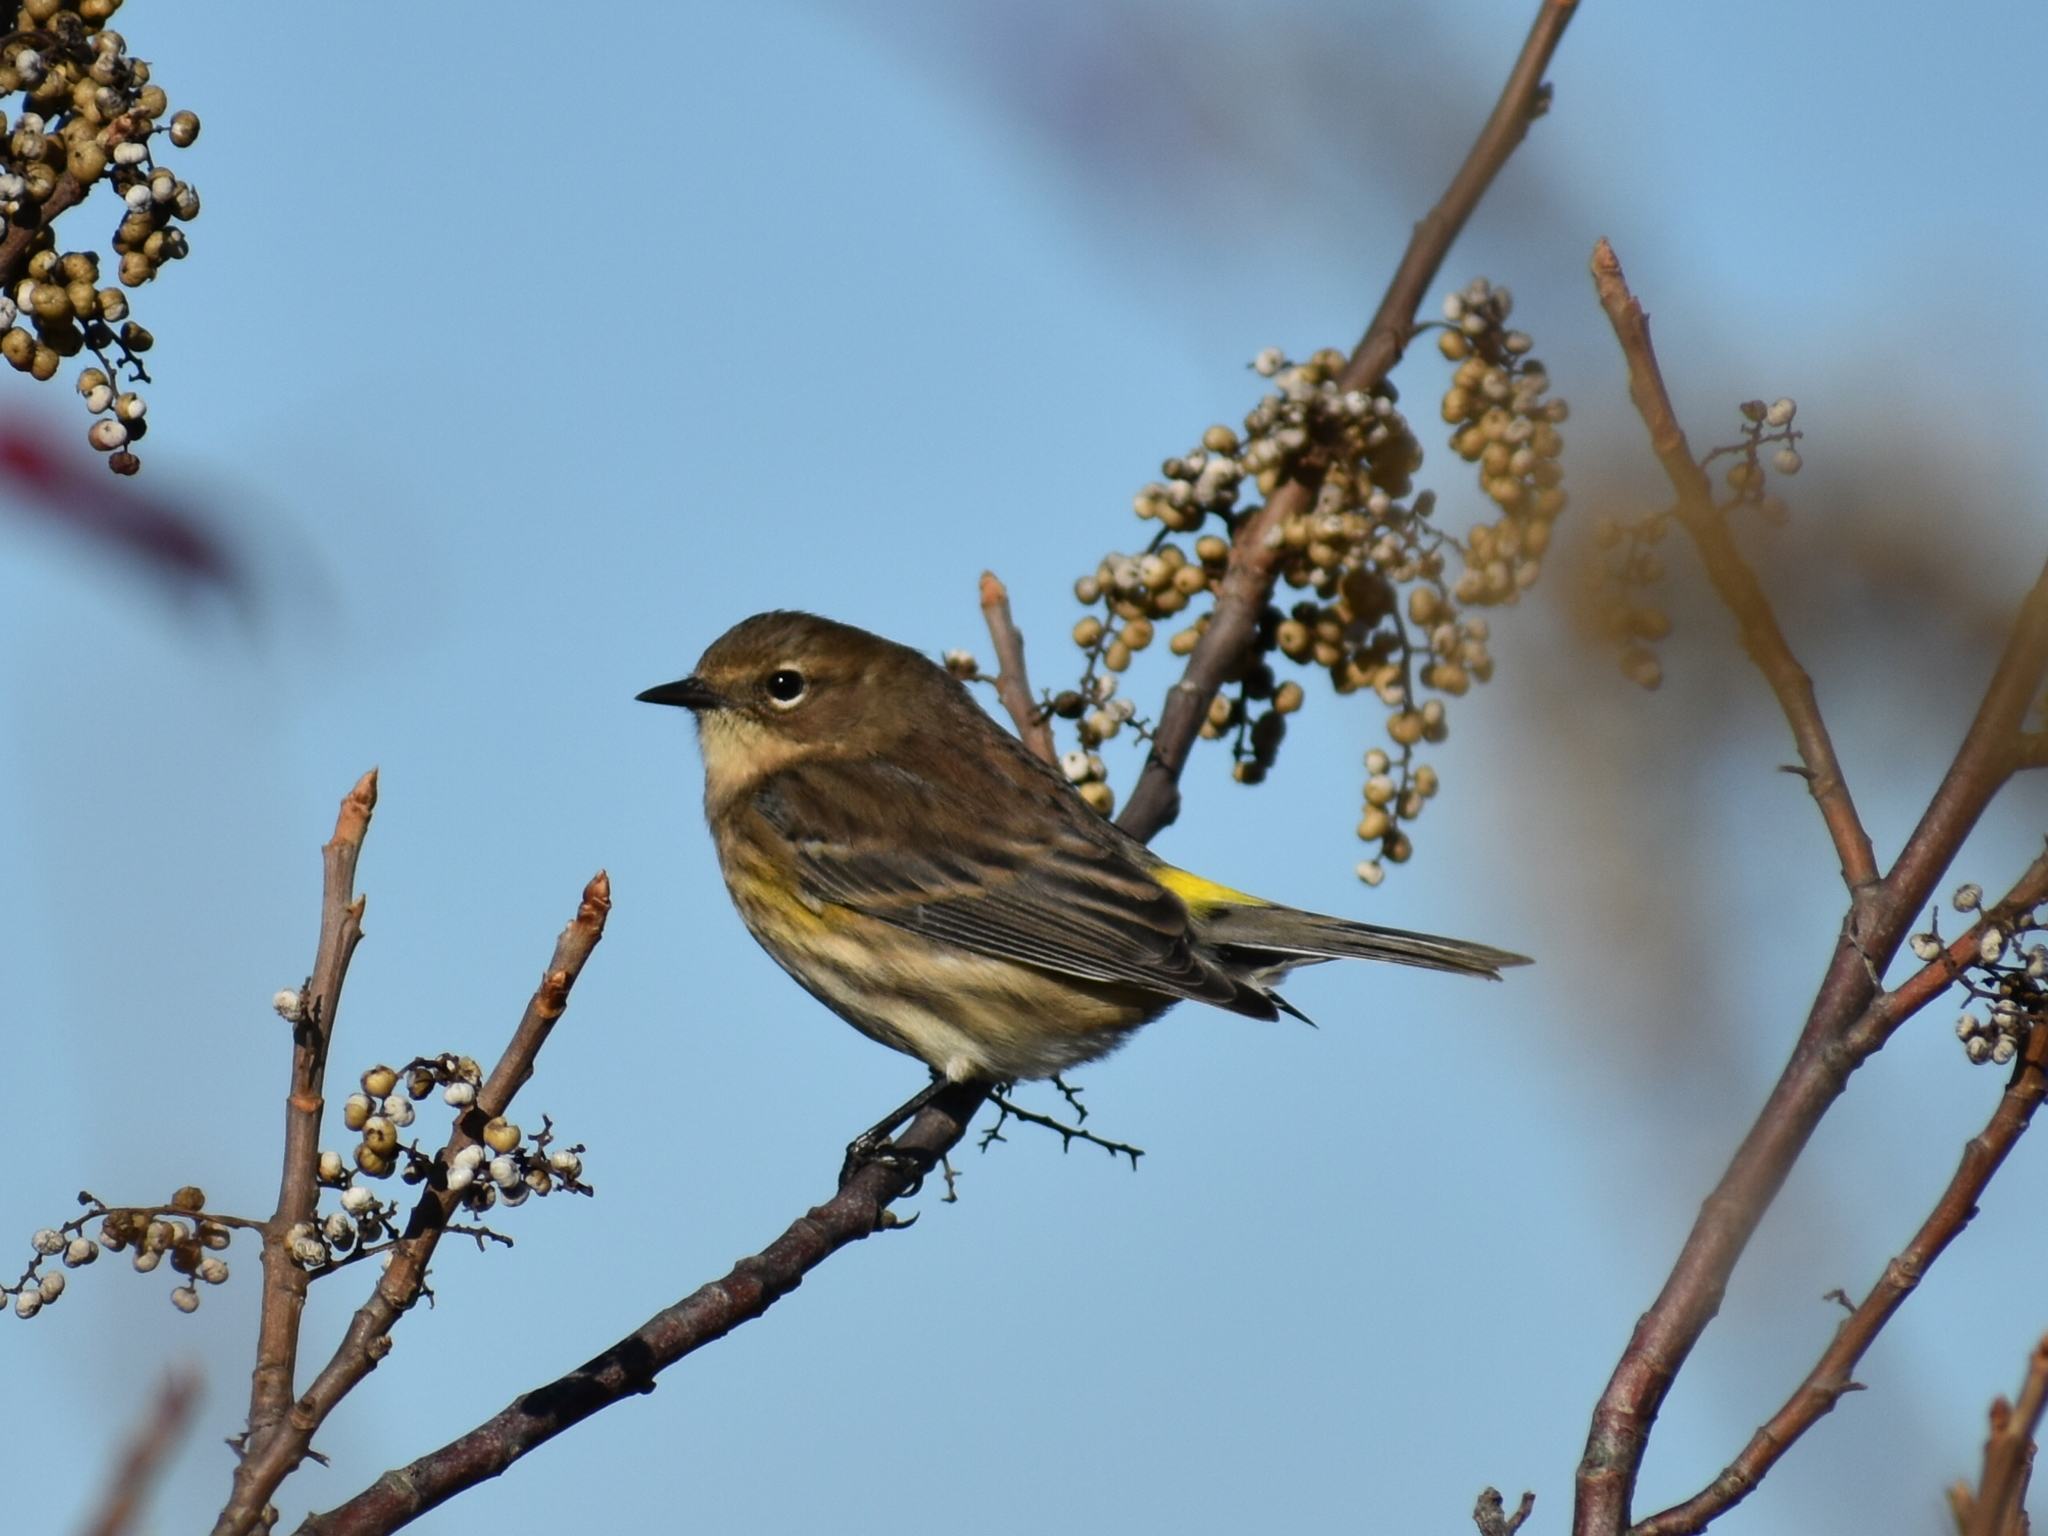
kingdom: Animalia
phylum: Chordata
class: Aves
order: Passeriformes
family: Parulidae
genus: Setophaga
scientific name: Setophaga coronata
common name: Myrtle warbler
